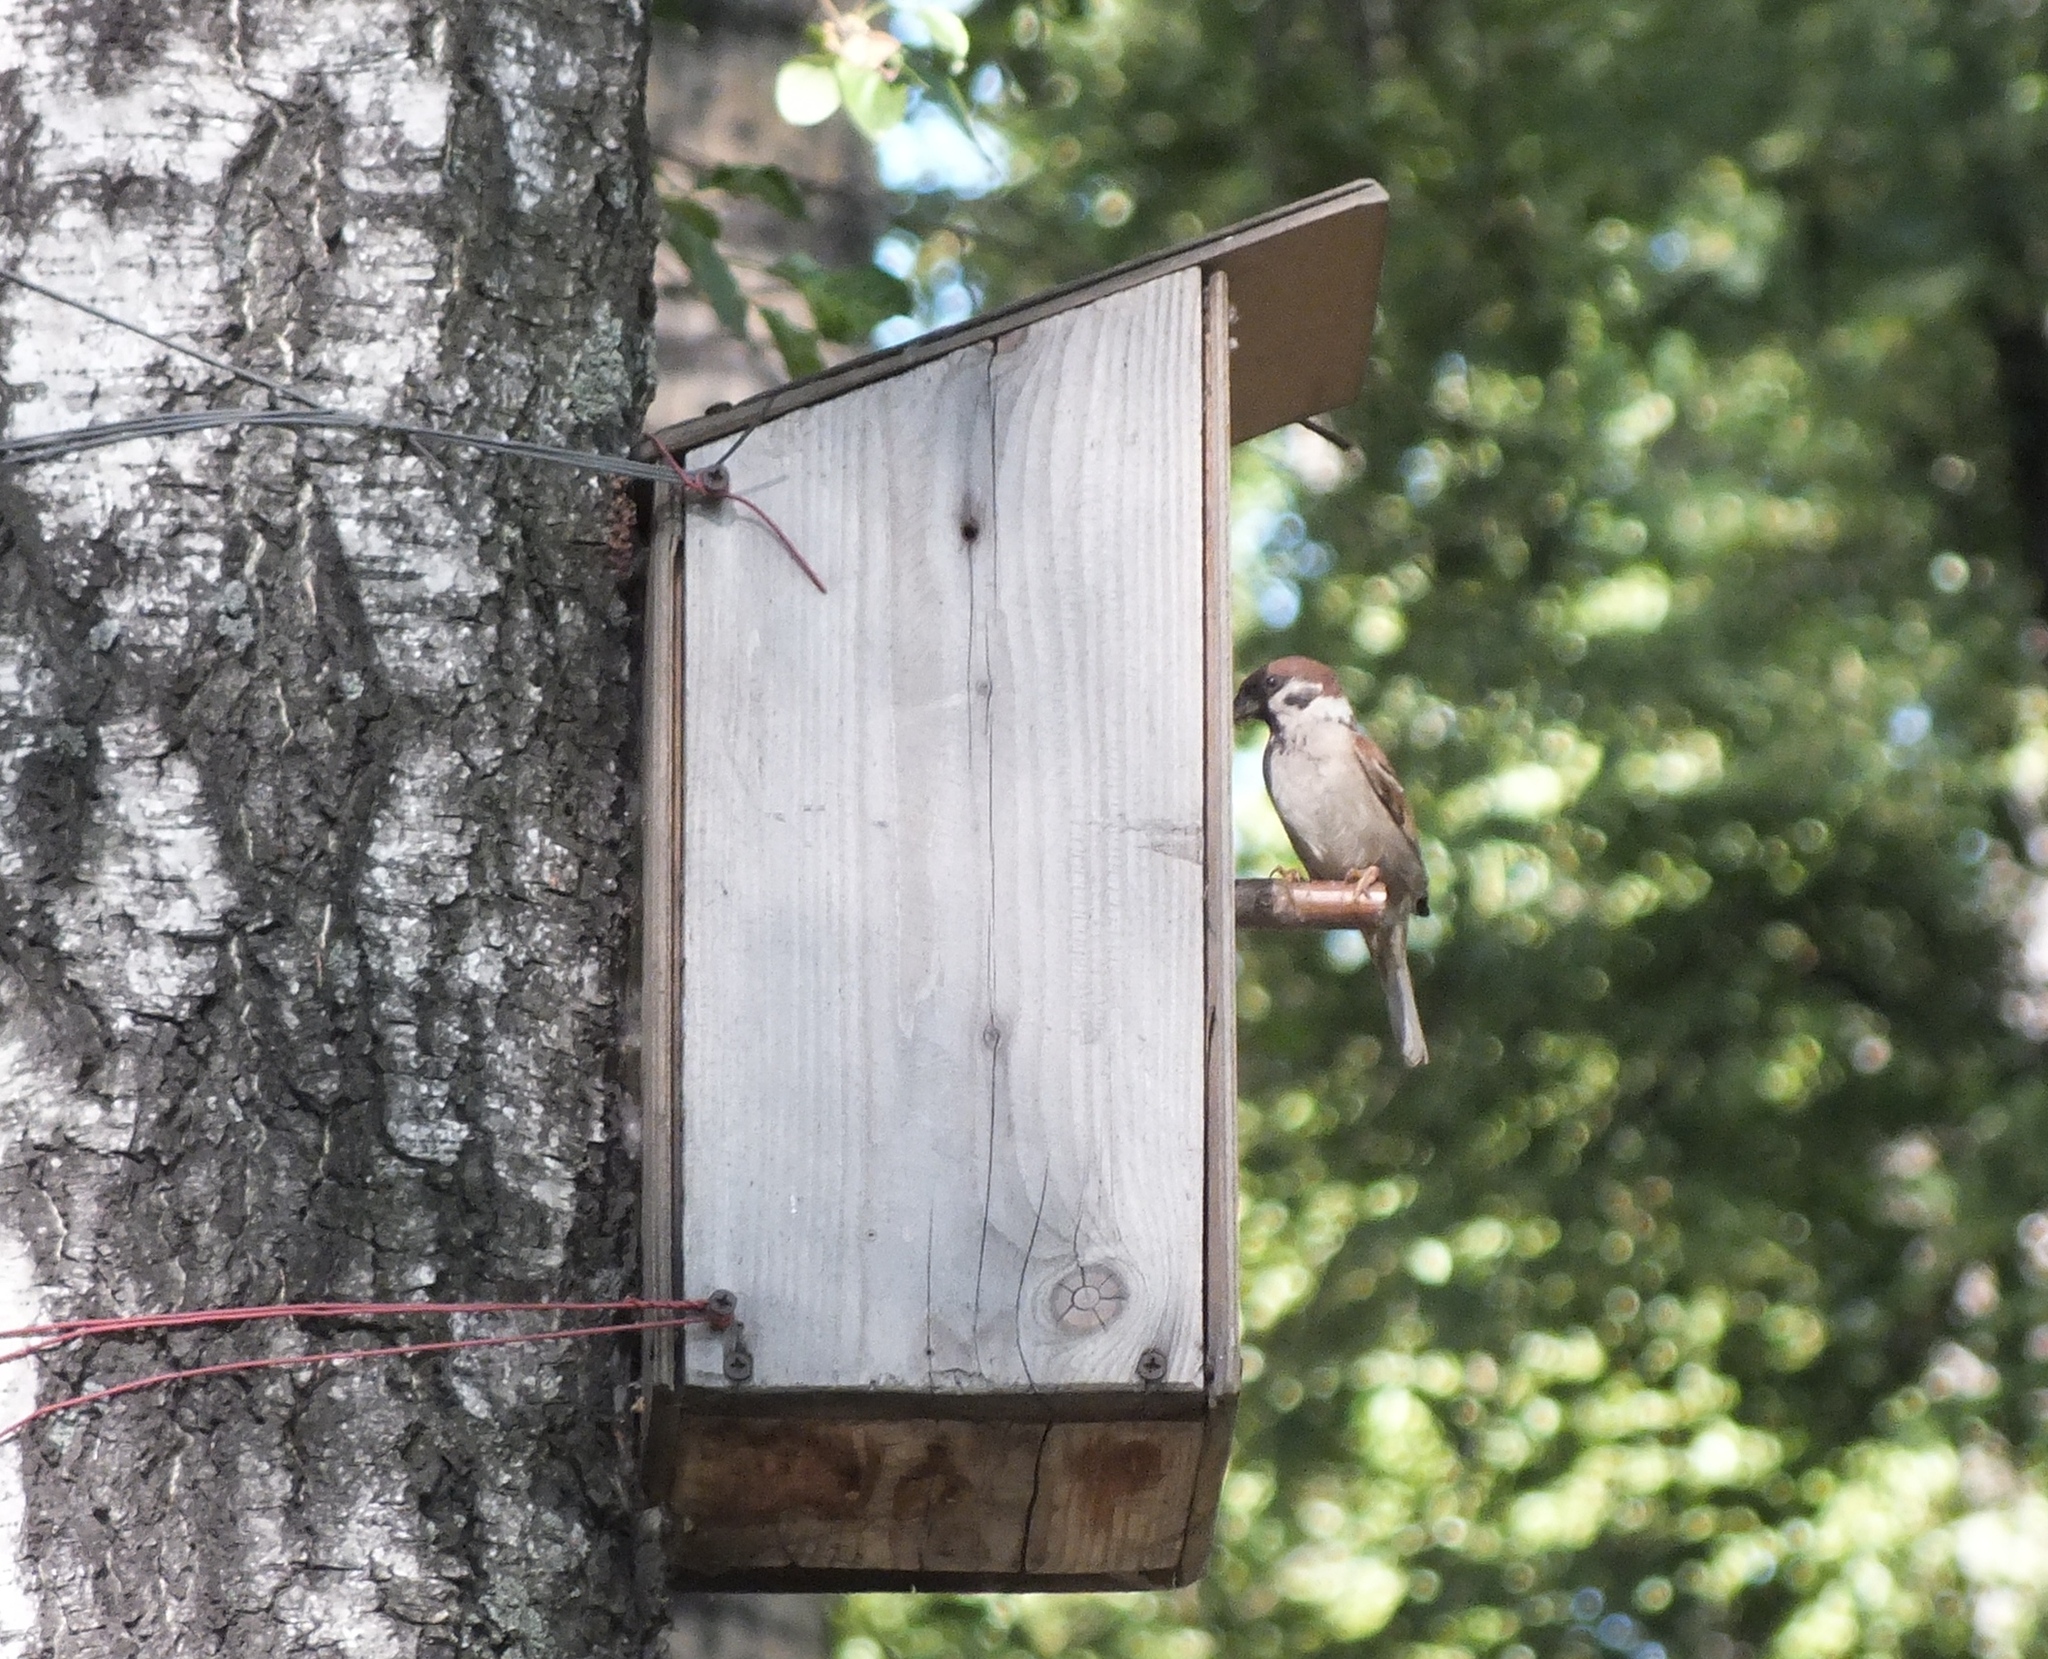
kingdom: Animalia
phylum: Chordata
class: Aves
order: Passeriformes
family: Passeridae
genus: Passer
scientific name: Passer montanus
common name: Eurasian tree sparrow
